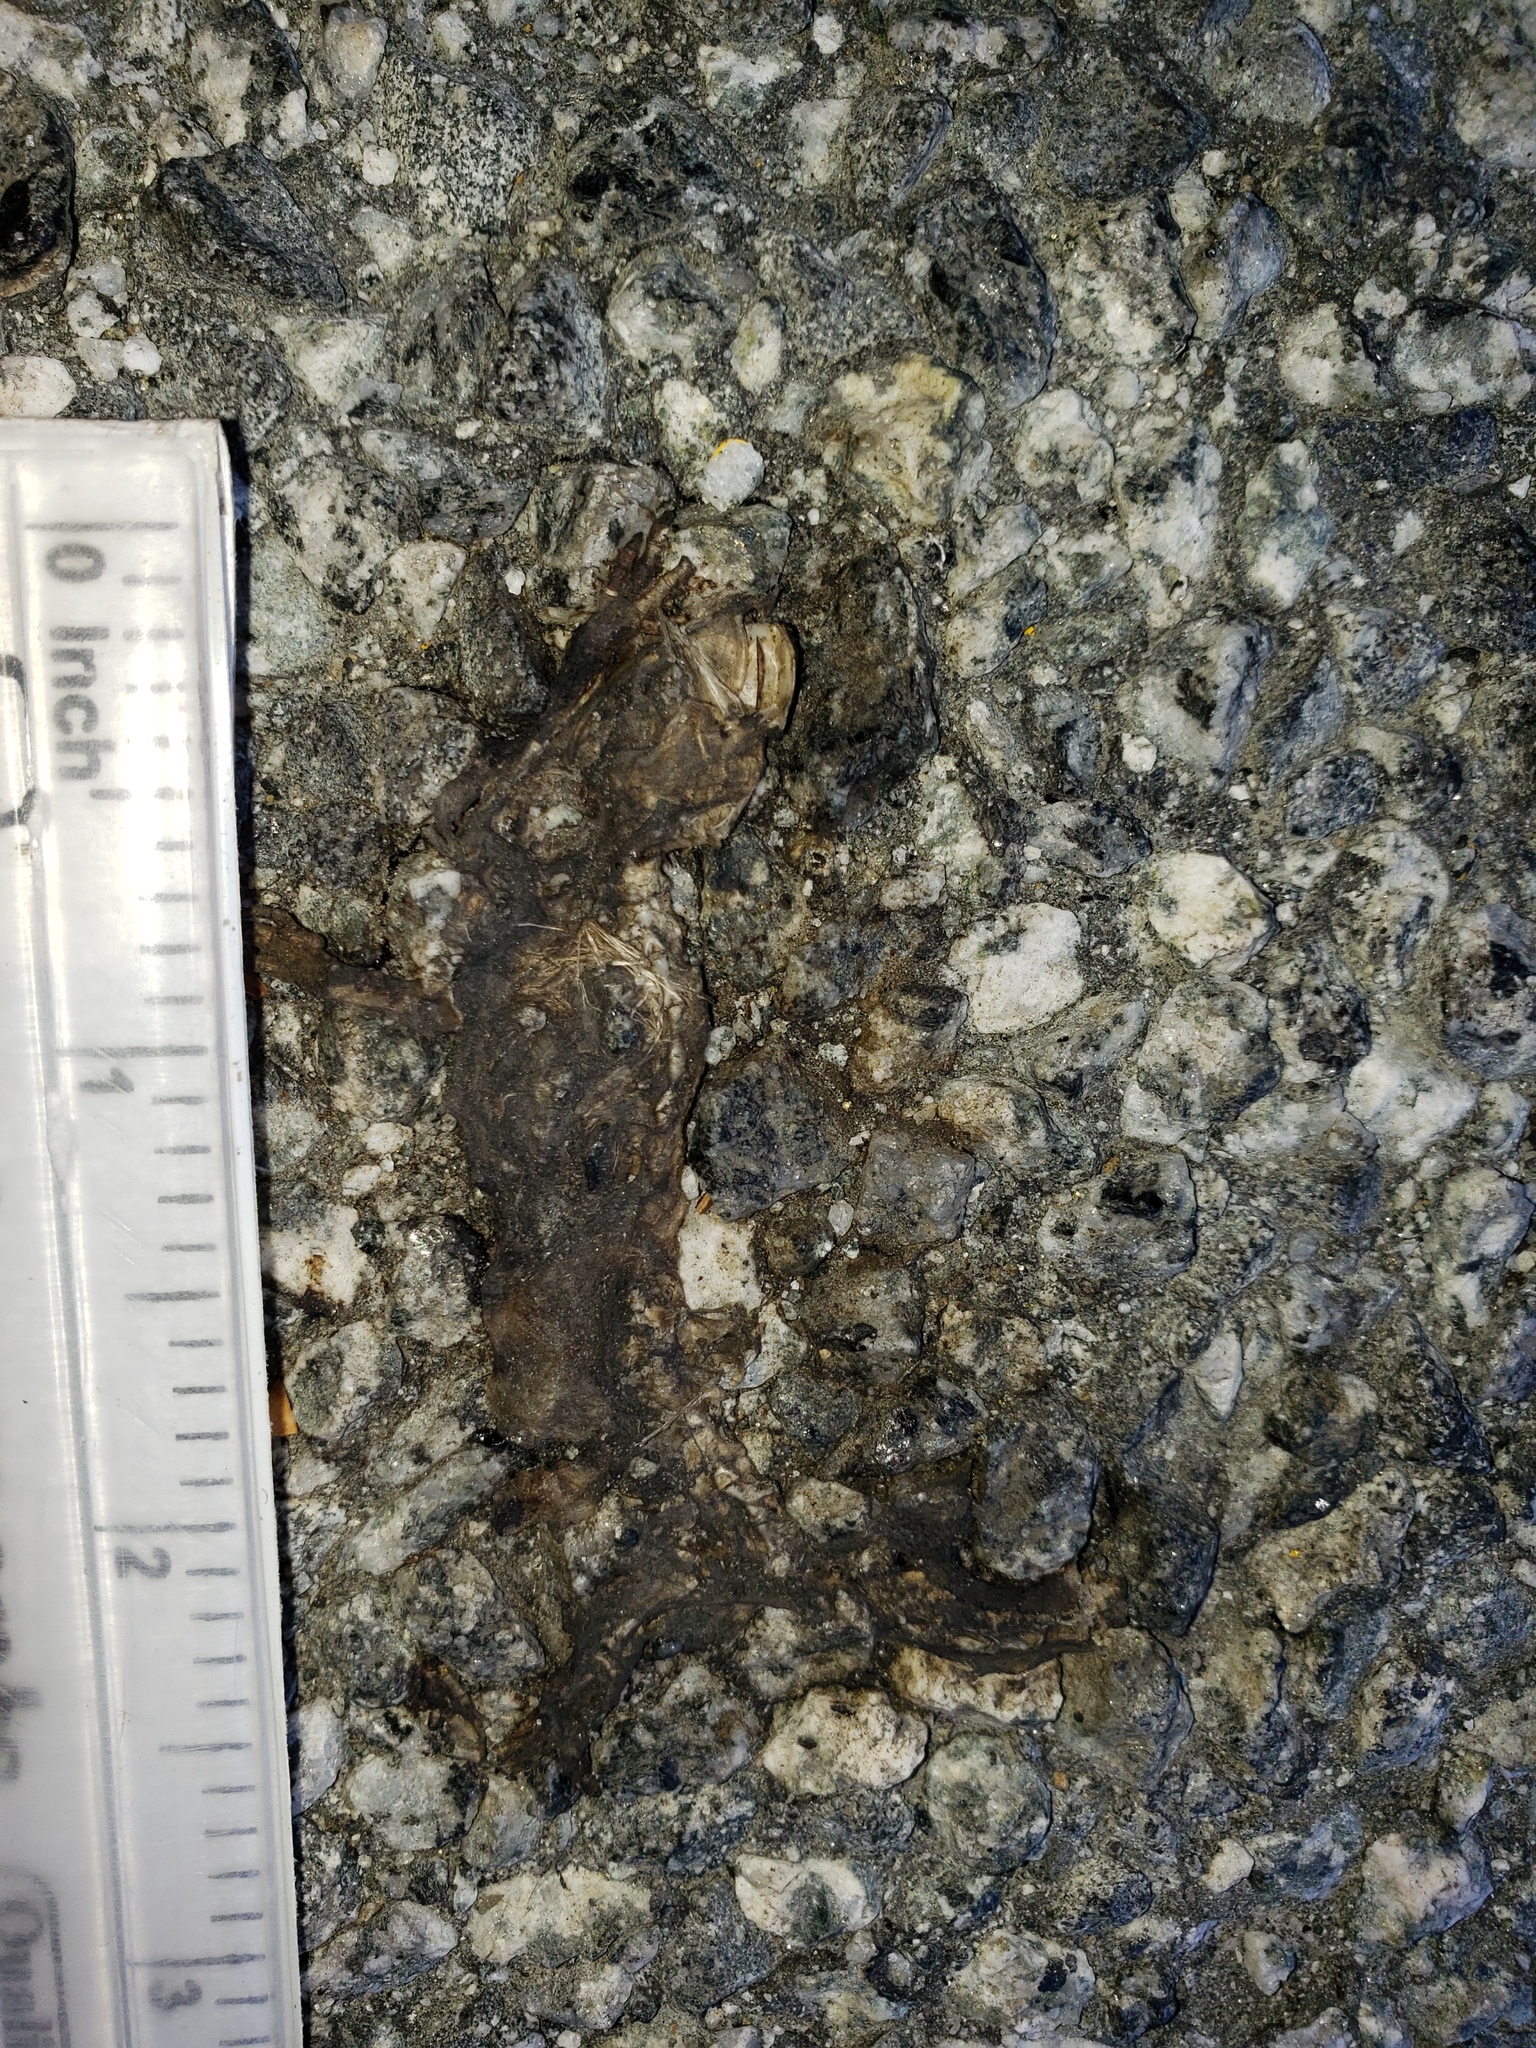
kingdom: Animalia
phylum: Chordata
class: Amphibia
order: Caudata
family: Salamandridae
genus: Taricha
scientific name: Taricha
